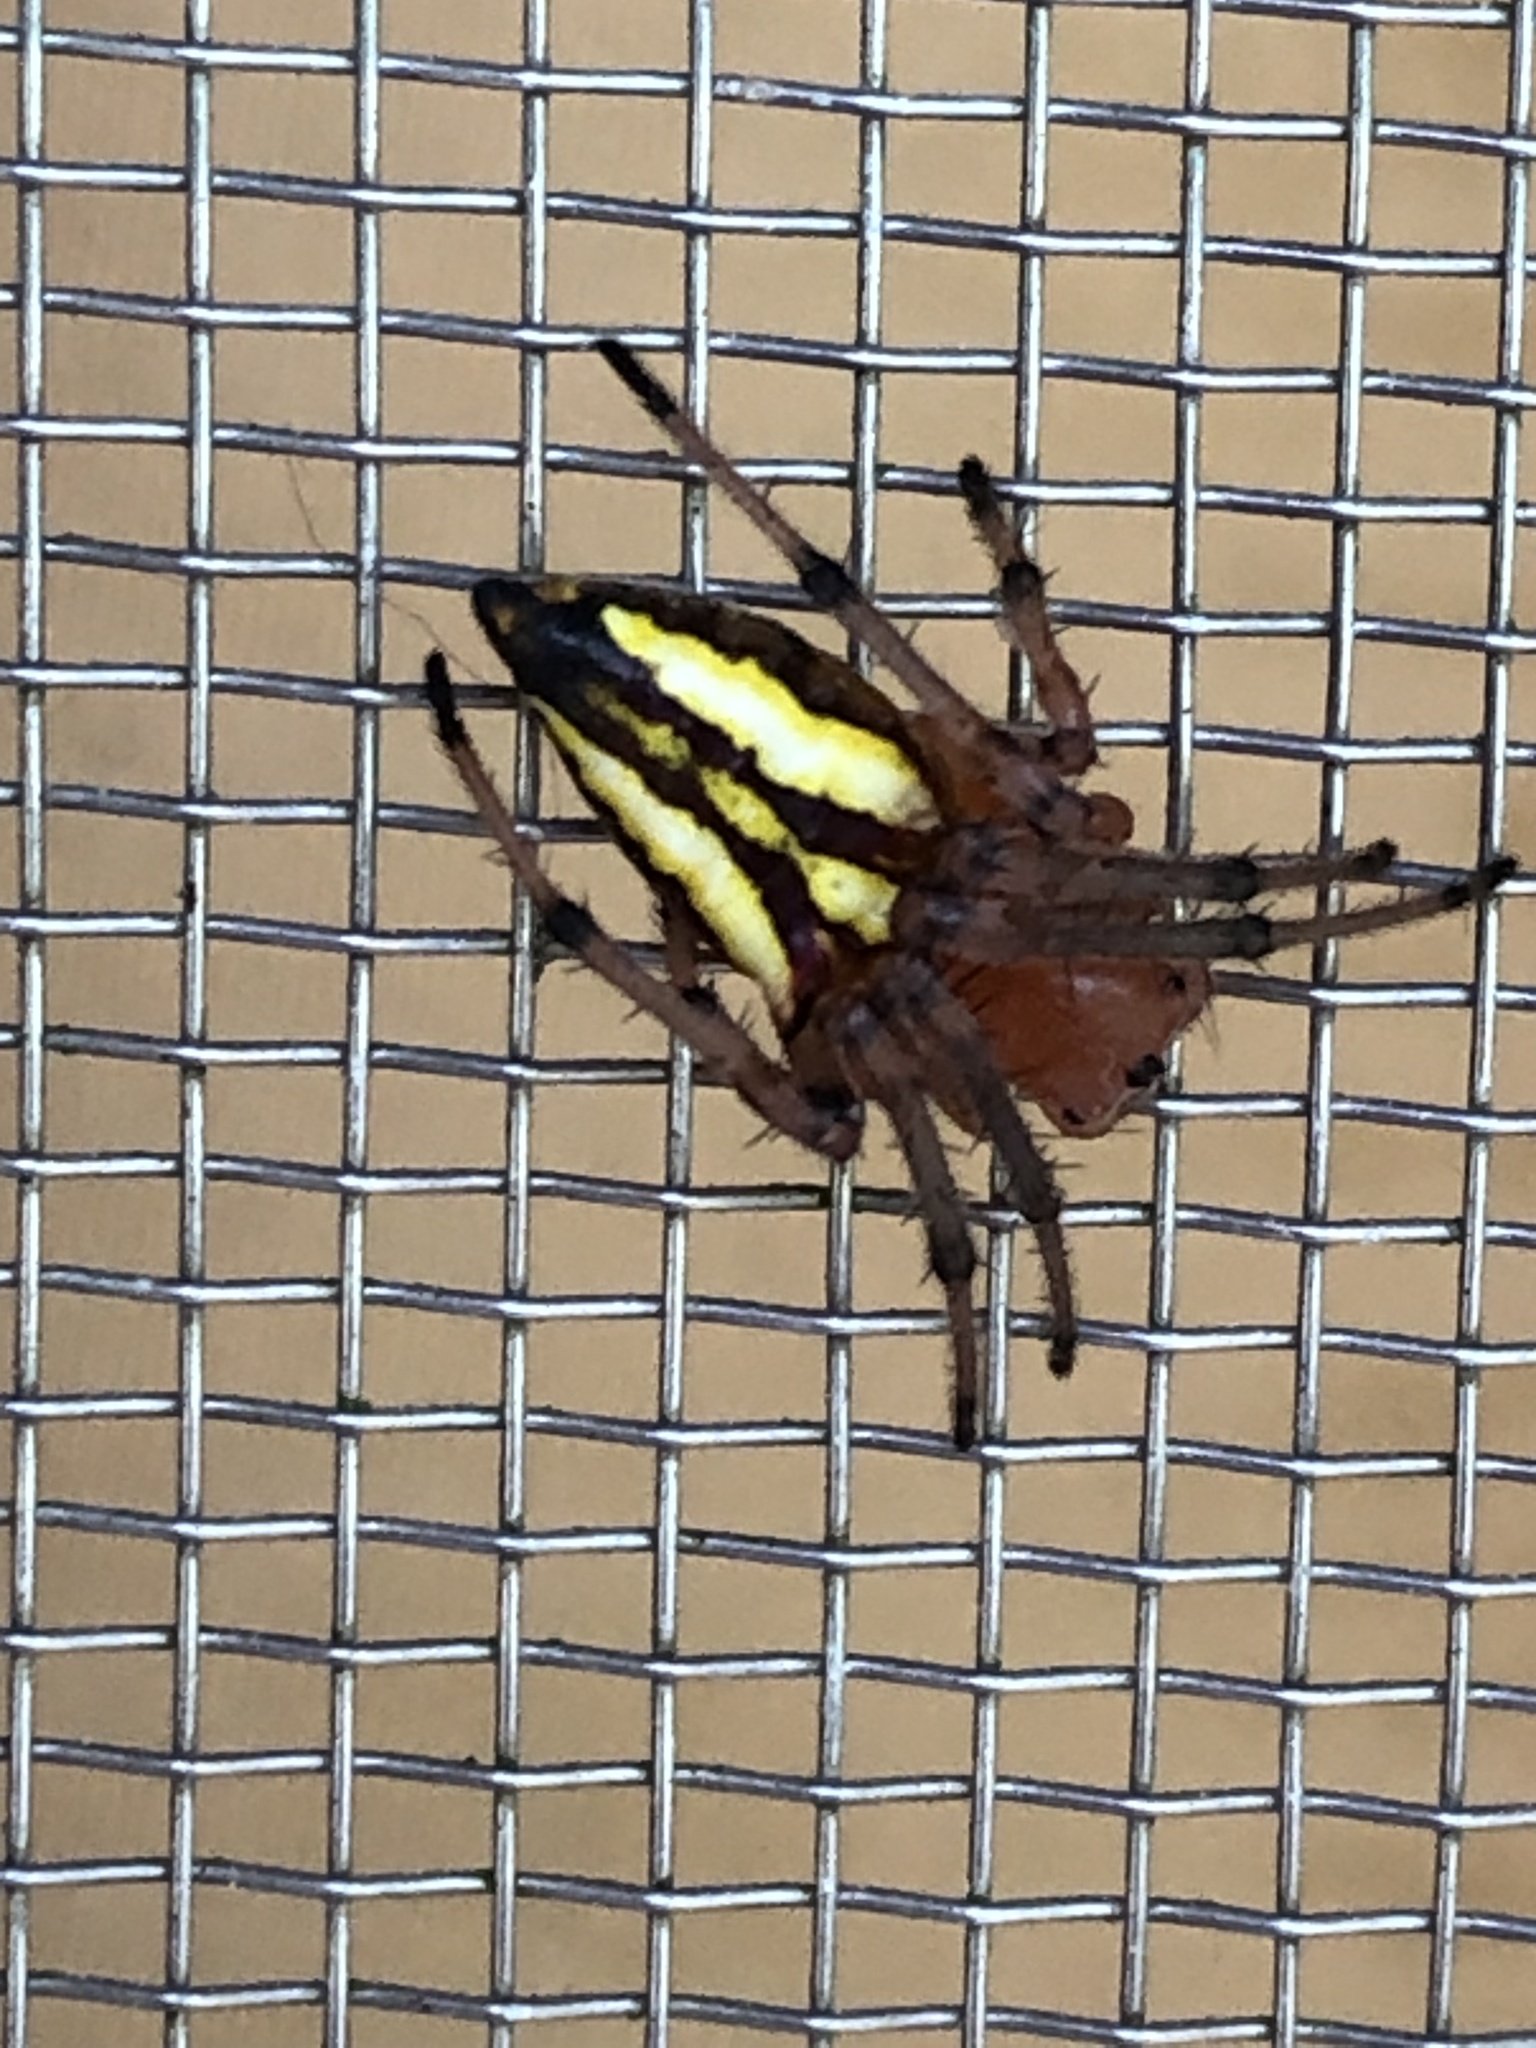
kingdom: Animalia
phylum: Arthropoda
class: Arachnida
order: Araneae
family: Araneidae
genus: Alpaida
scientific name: Alpaida bicornuta
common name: Orb weavers
